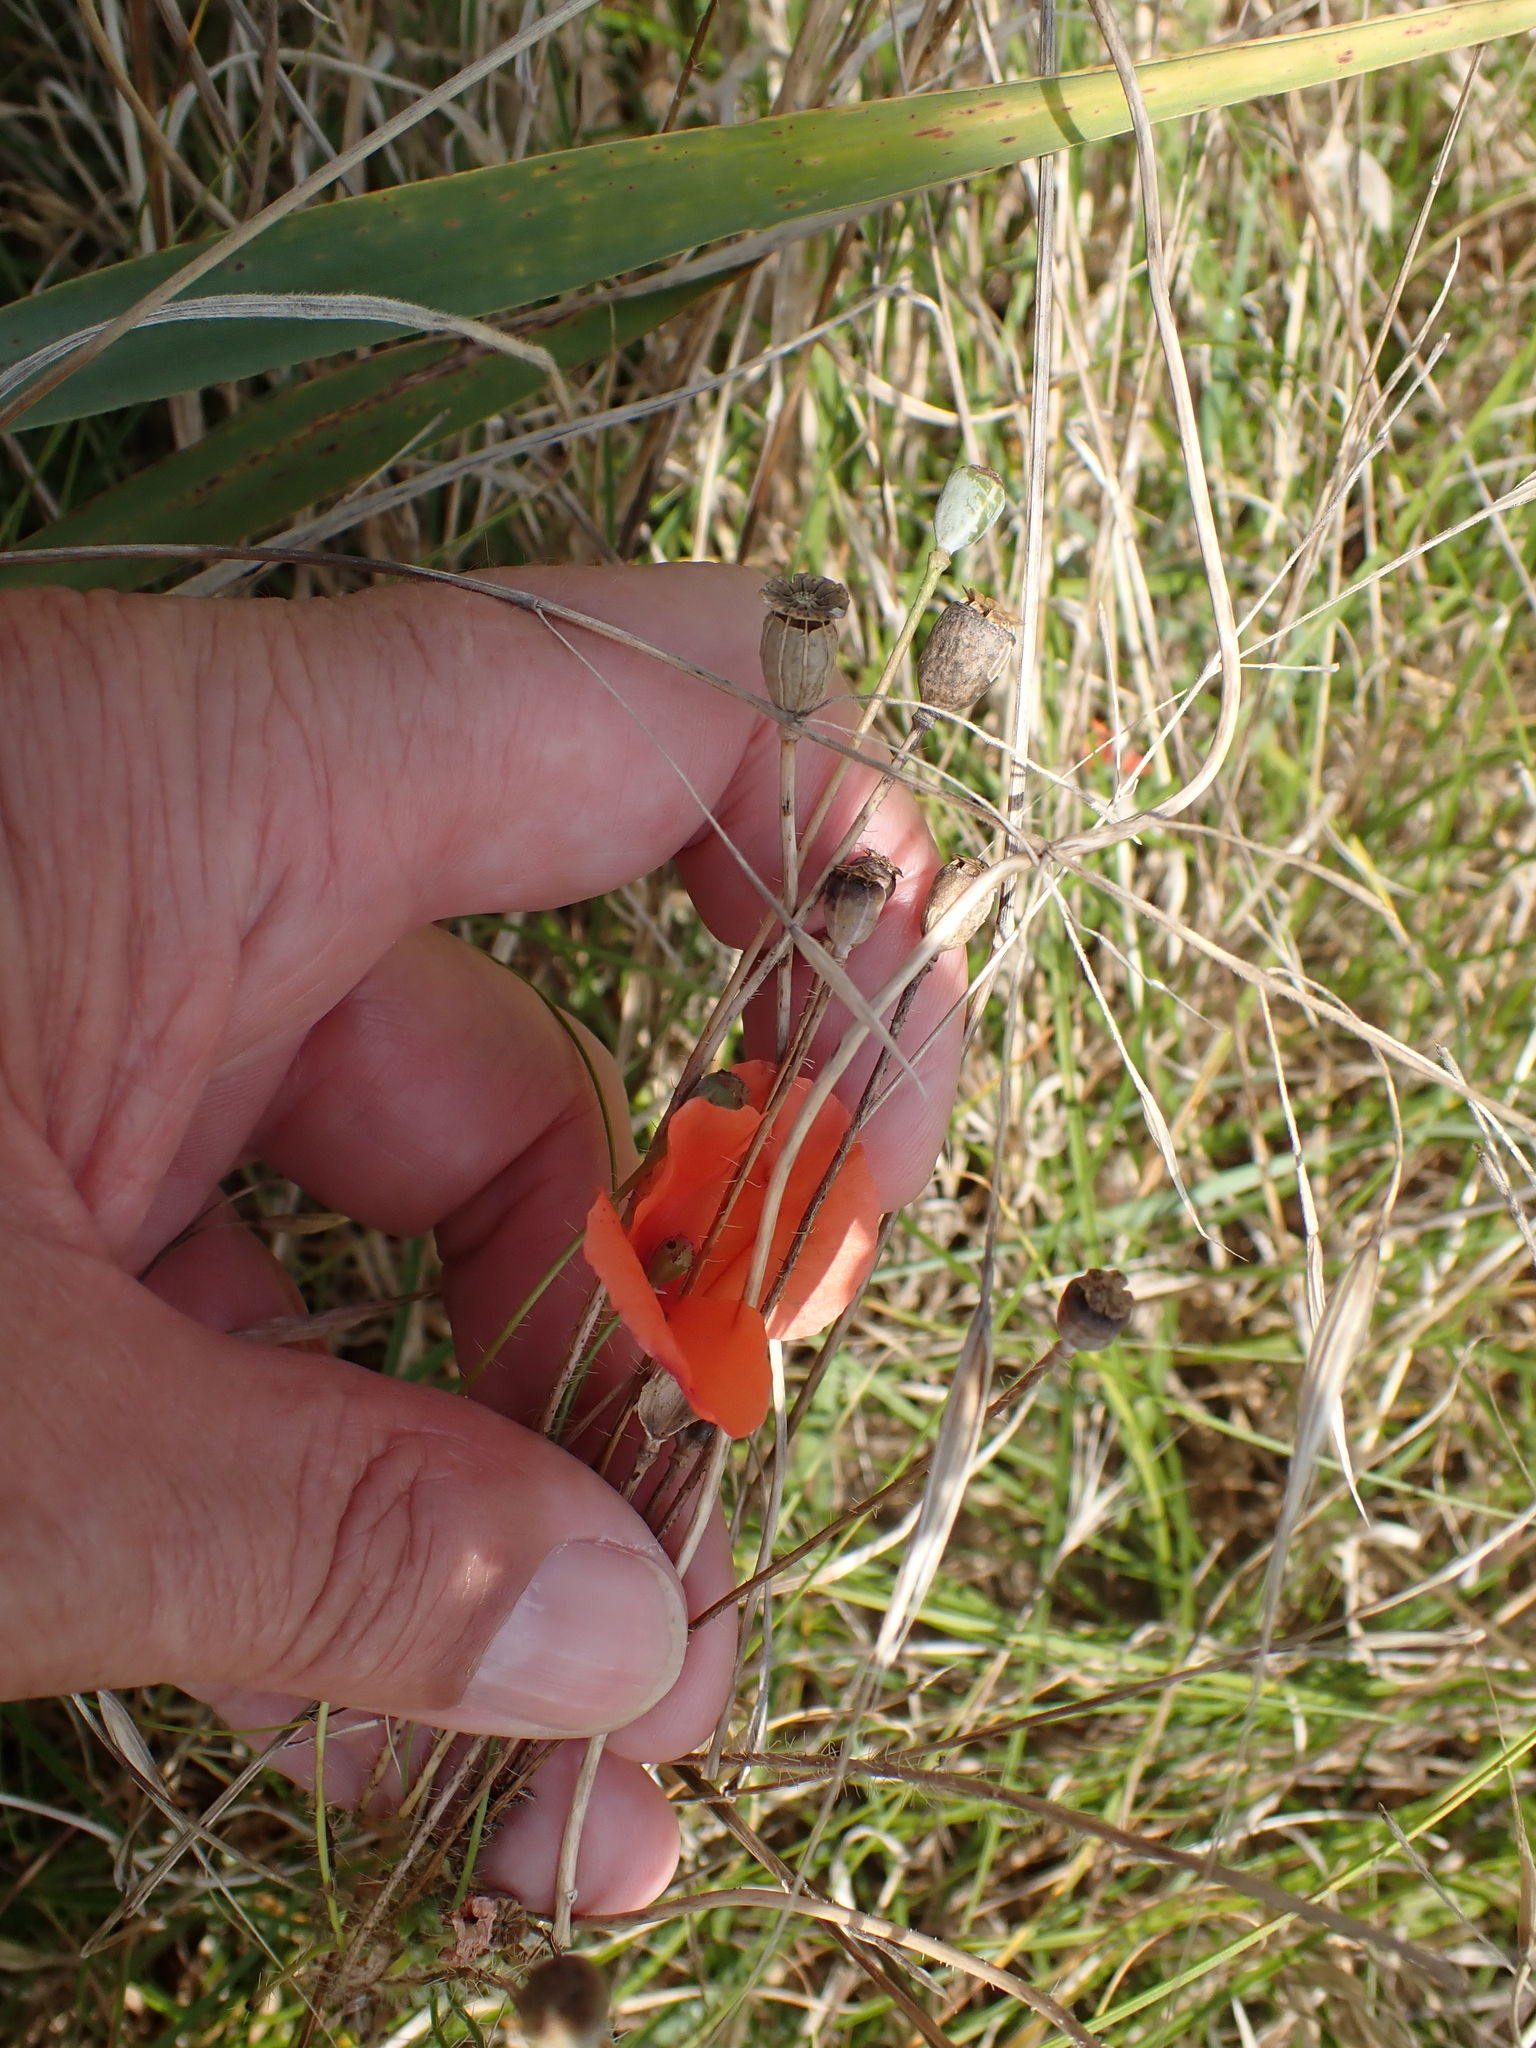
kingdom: Plantae
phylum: Tracheophyta
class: Magnoliopsida
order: Ranunculales
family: Papaveraceae
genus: Papaver
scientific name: Papaver rhoeas
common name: Corn poppy
